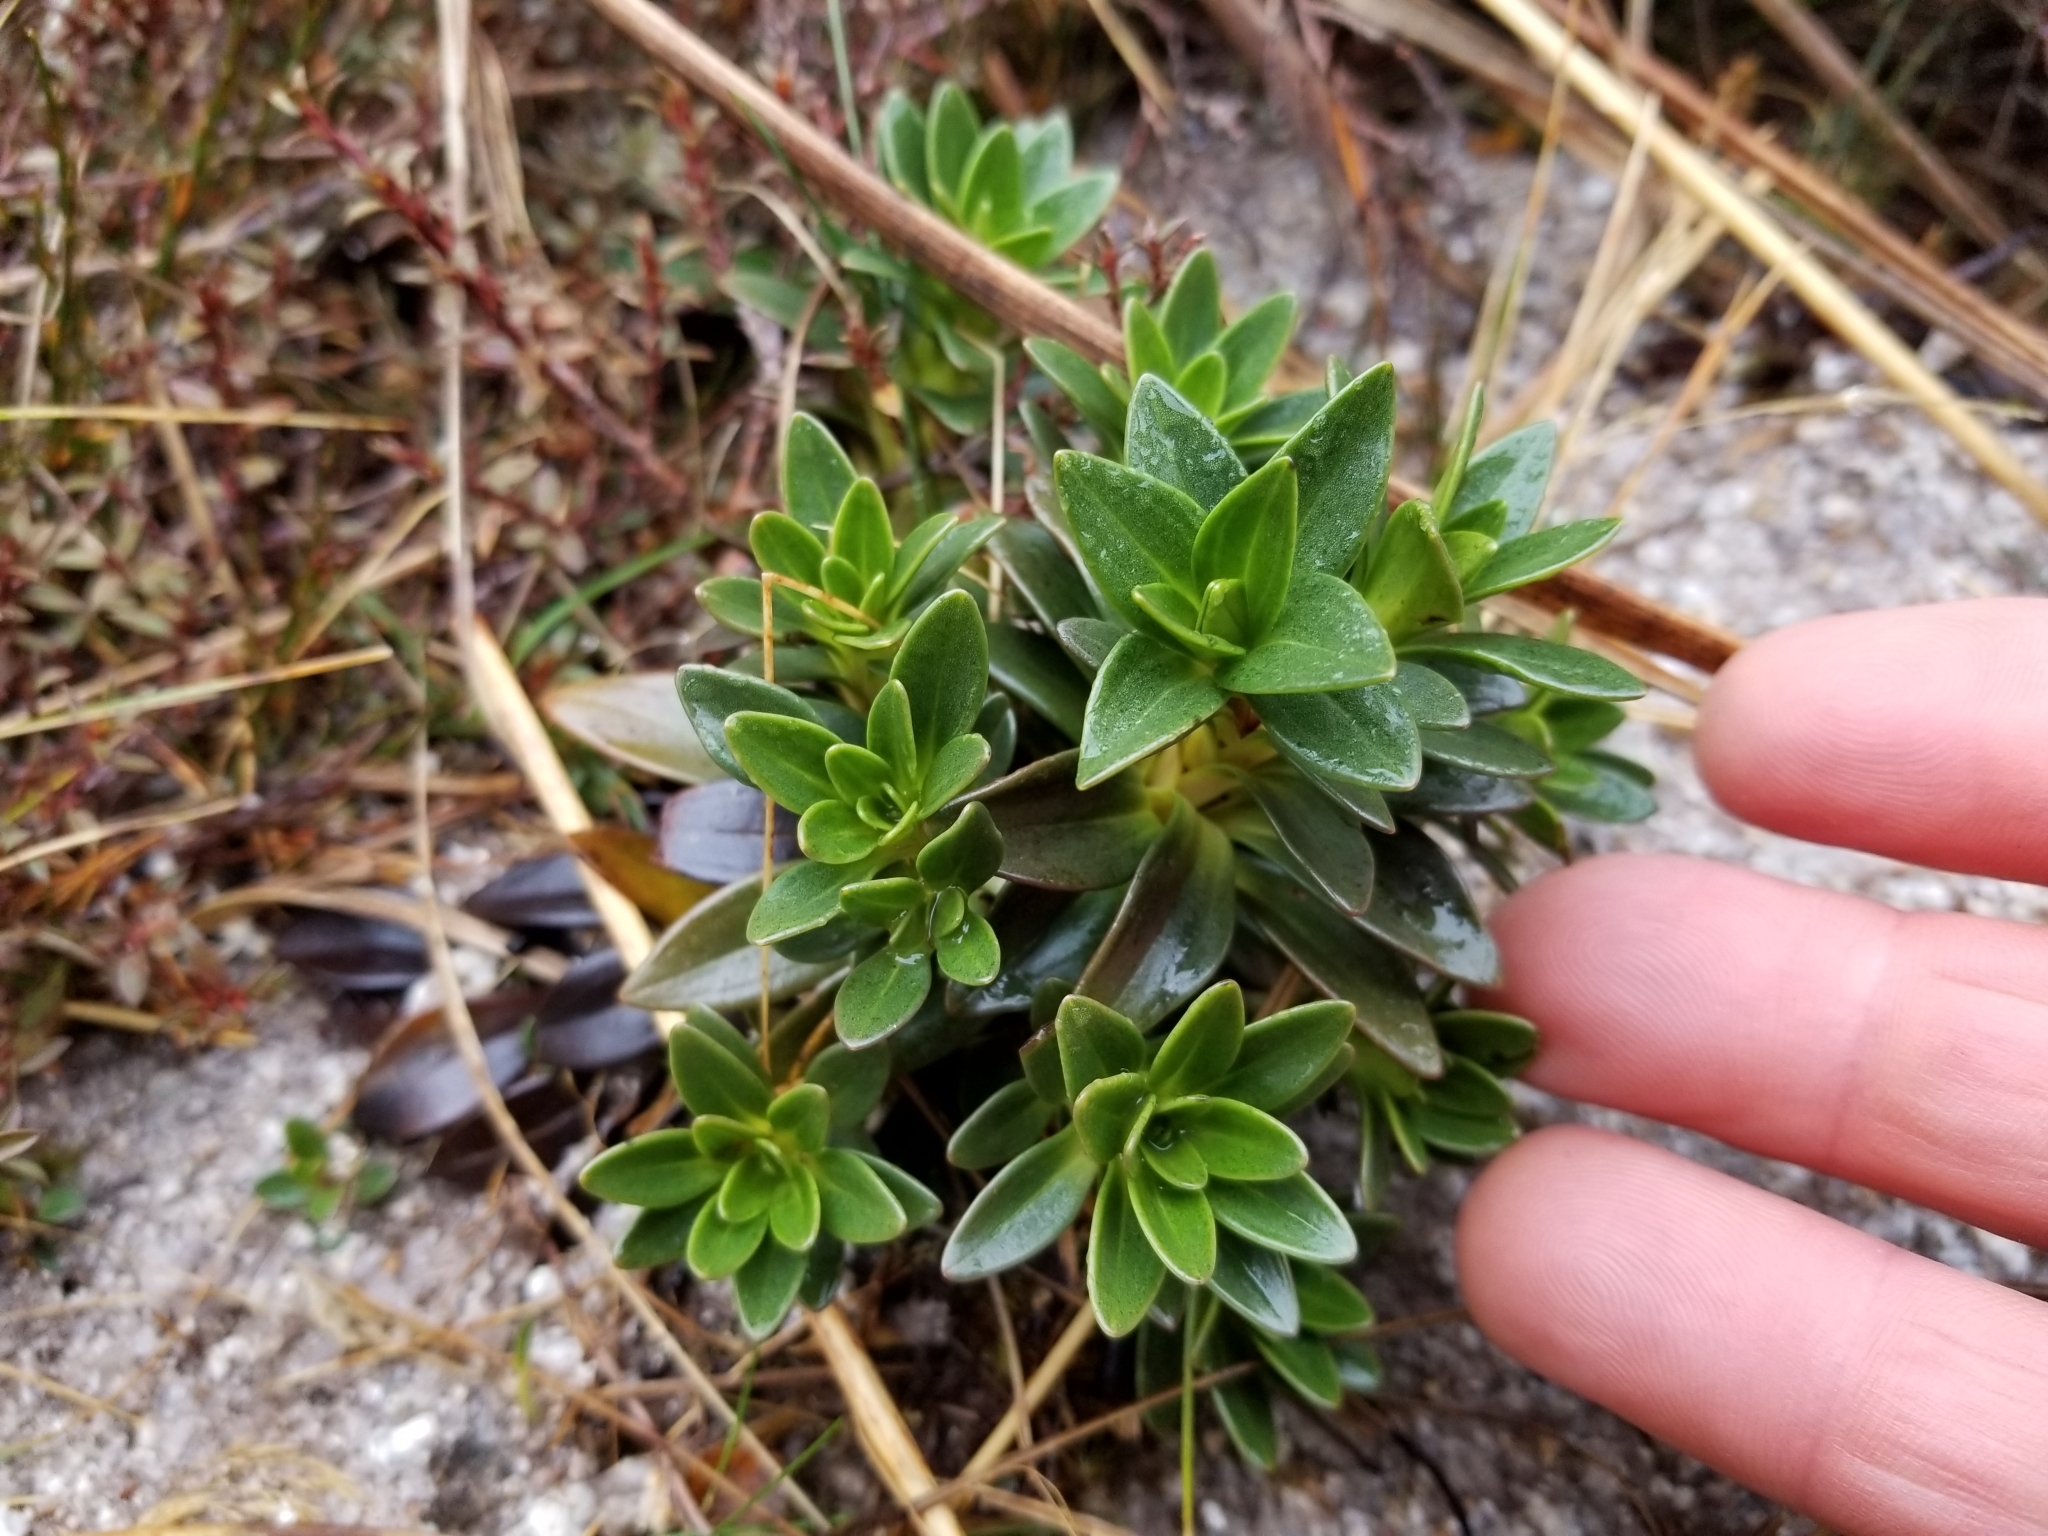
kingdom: Plantae
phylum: Tracheophyta
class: Magnoliopsida
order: Gentianales
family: Gentianaceae
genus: Gentianella
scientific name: Gentianella impressinervia
